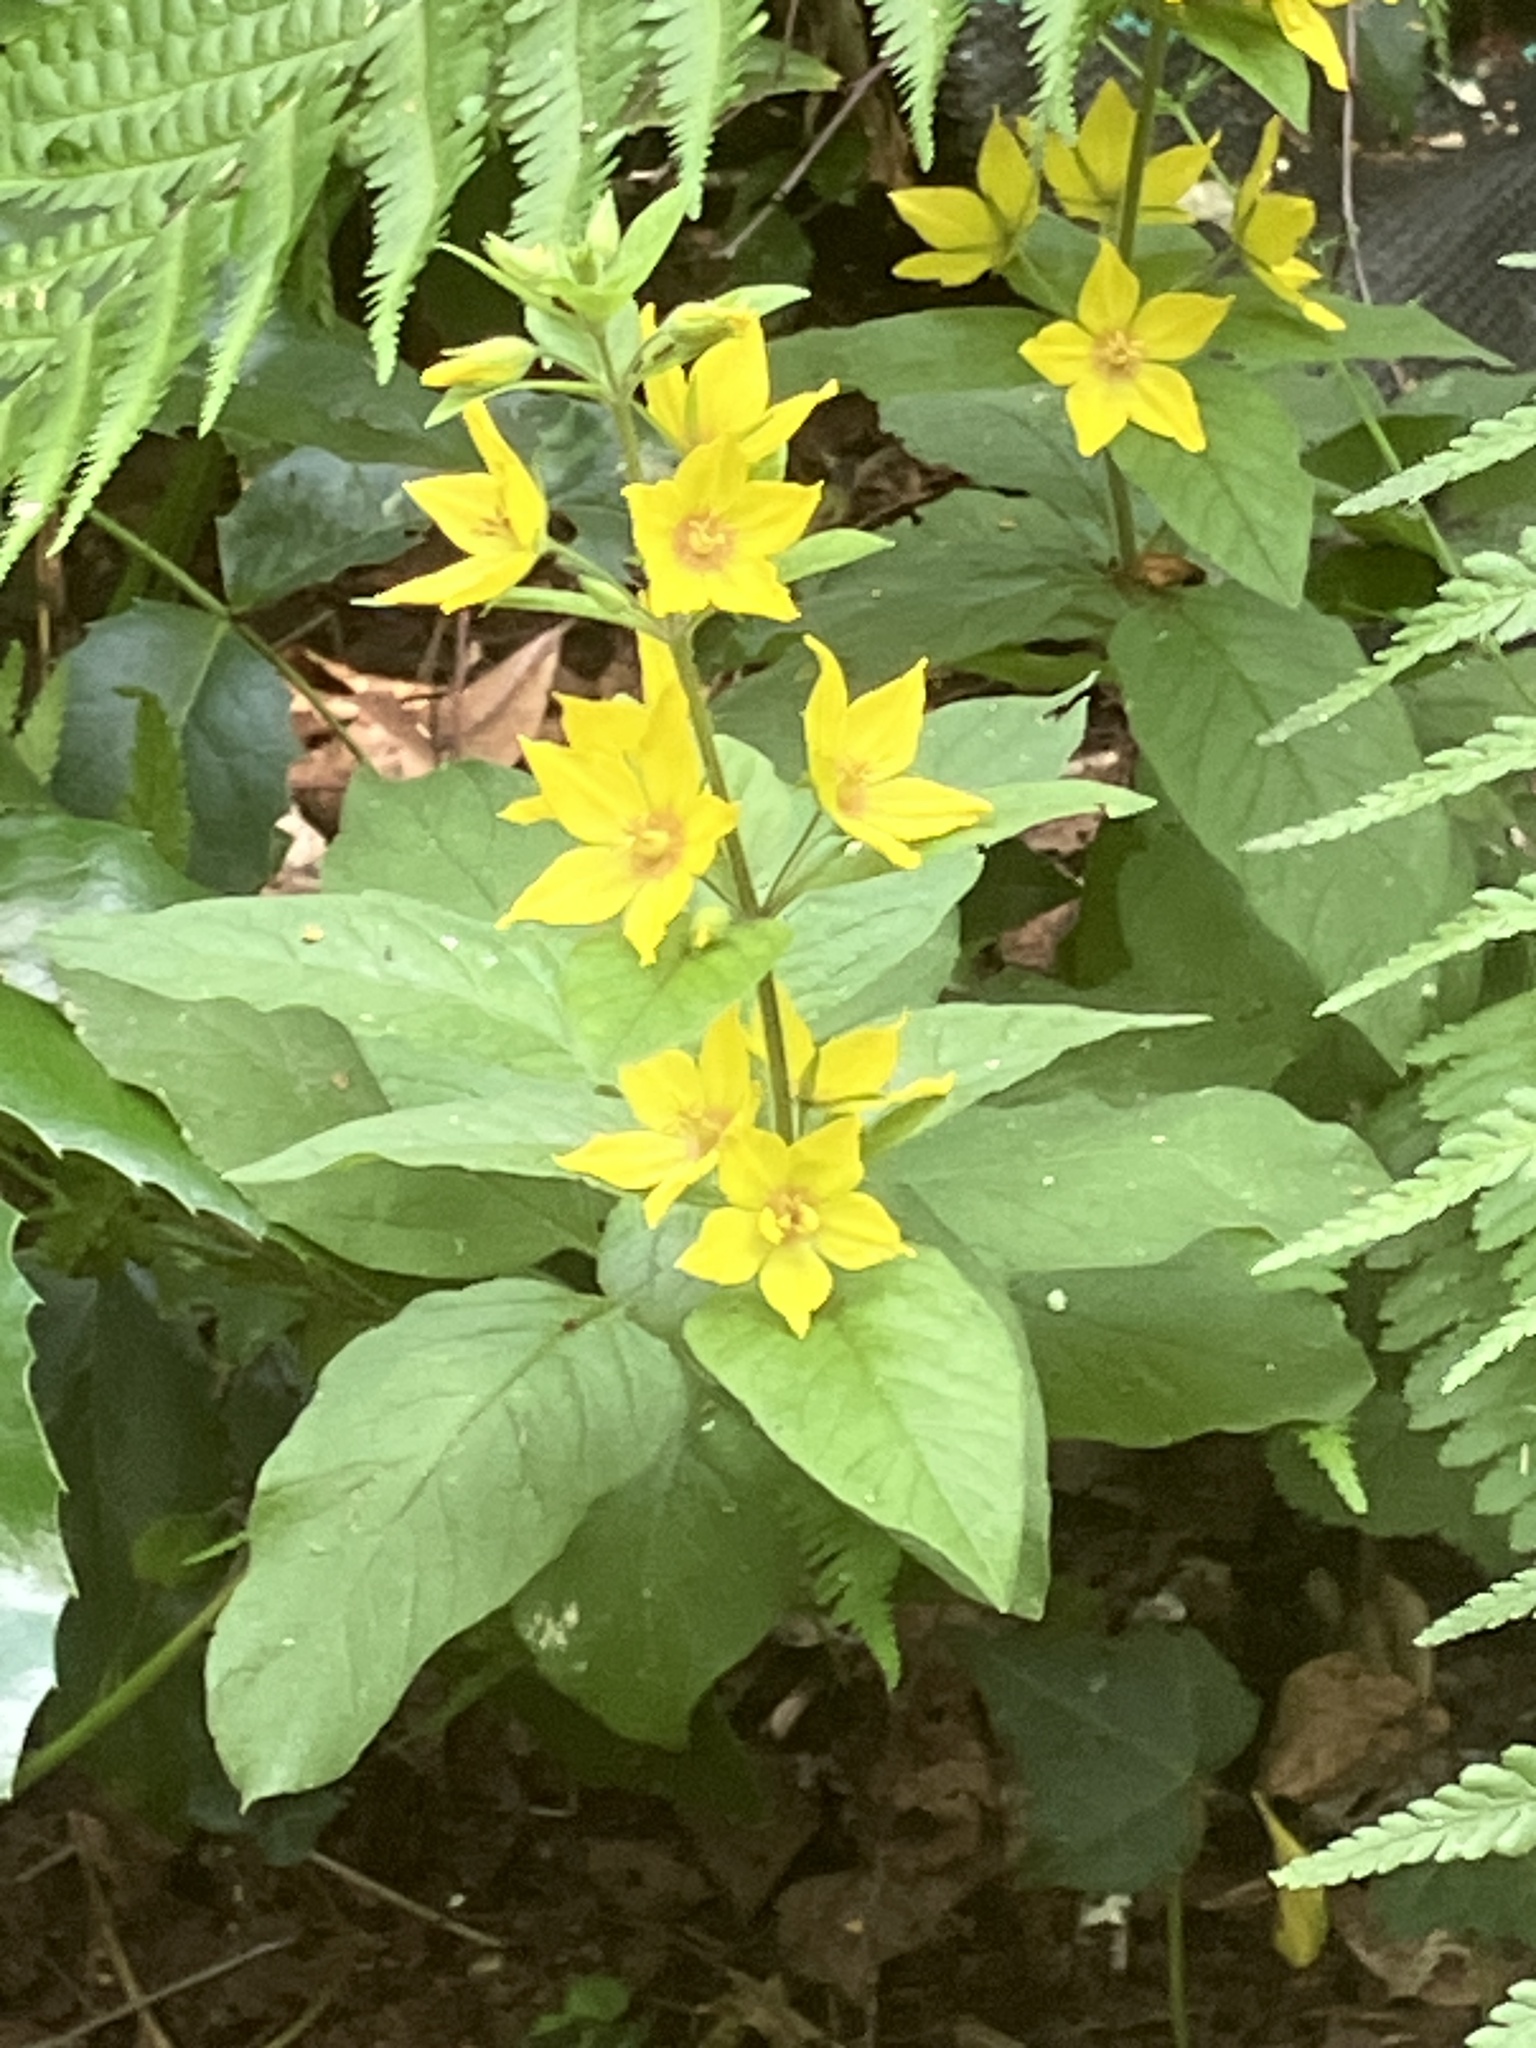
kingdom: Plantae
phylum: Tracheophyta
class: Magnoliopsida
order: Ericales
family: Primulaceae
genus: Lysimachia
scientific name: Lysimachia vulgaris
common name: Yellow loosestrife
